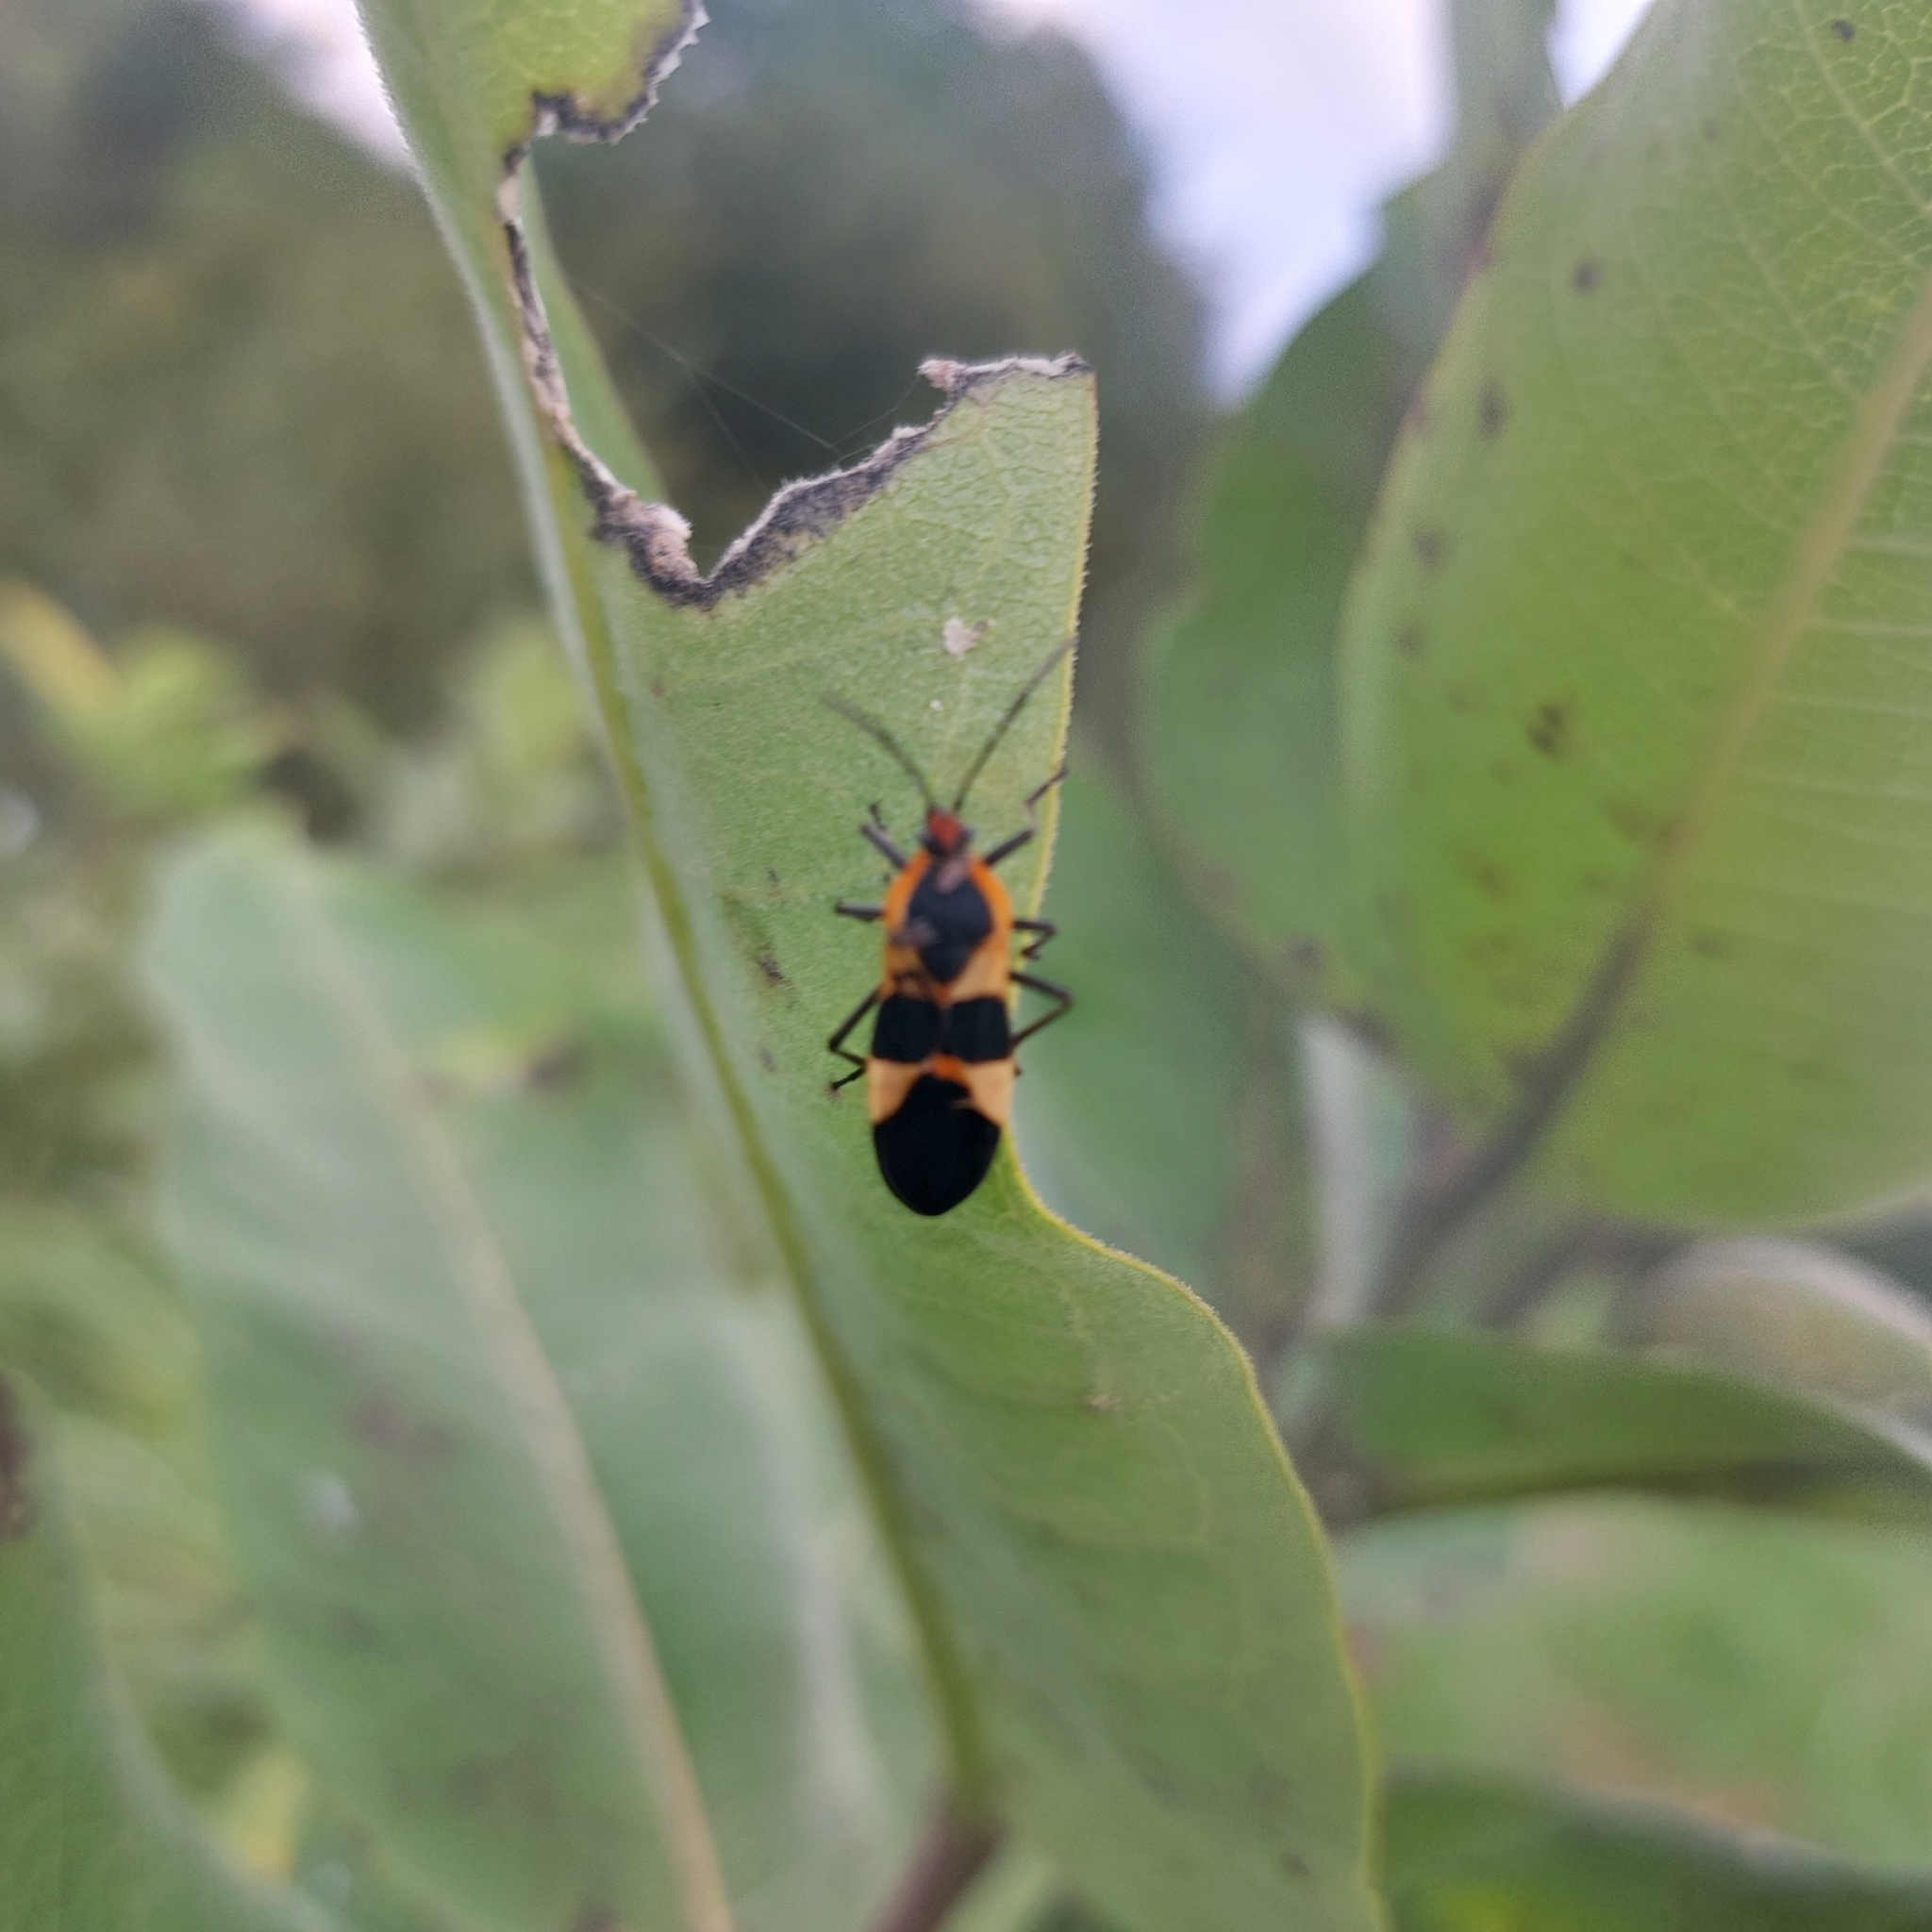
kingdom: Animalia
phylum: Arthropoda
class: Insecta
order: Hemiptera
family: Lygaeidae
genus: Oncopeltus
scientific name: Oncopeltus fasciatus
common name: Large milkweed bug
